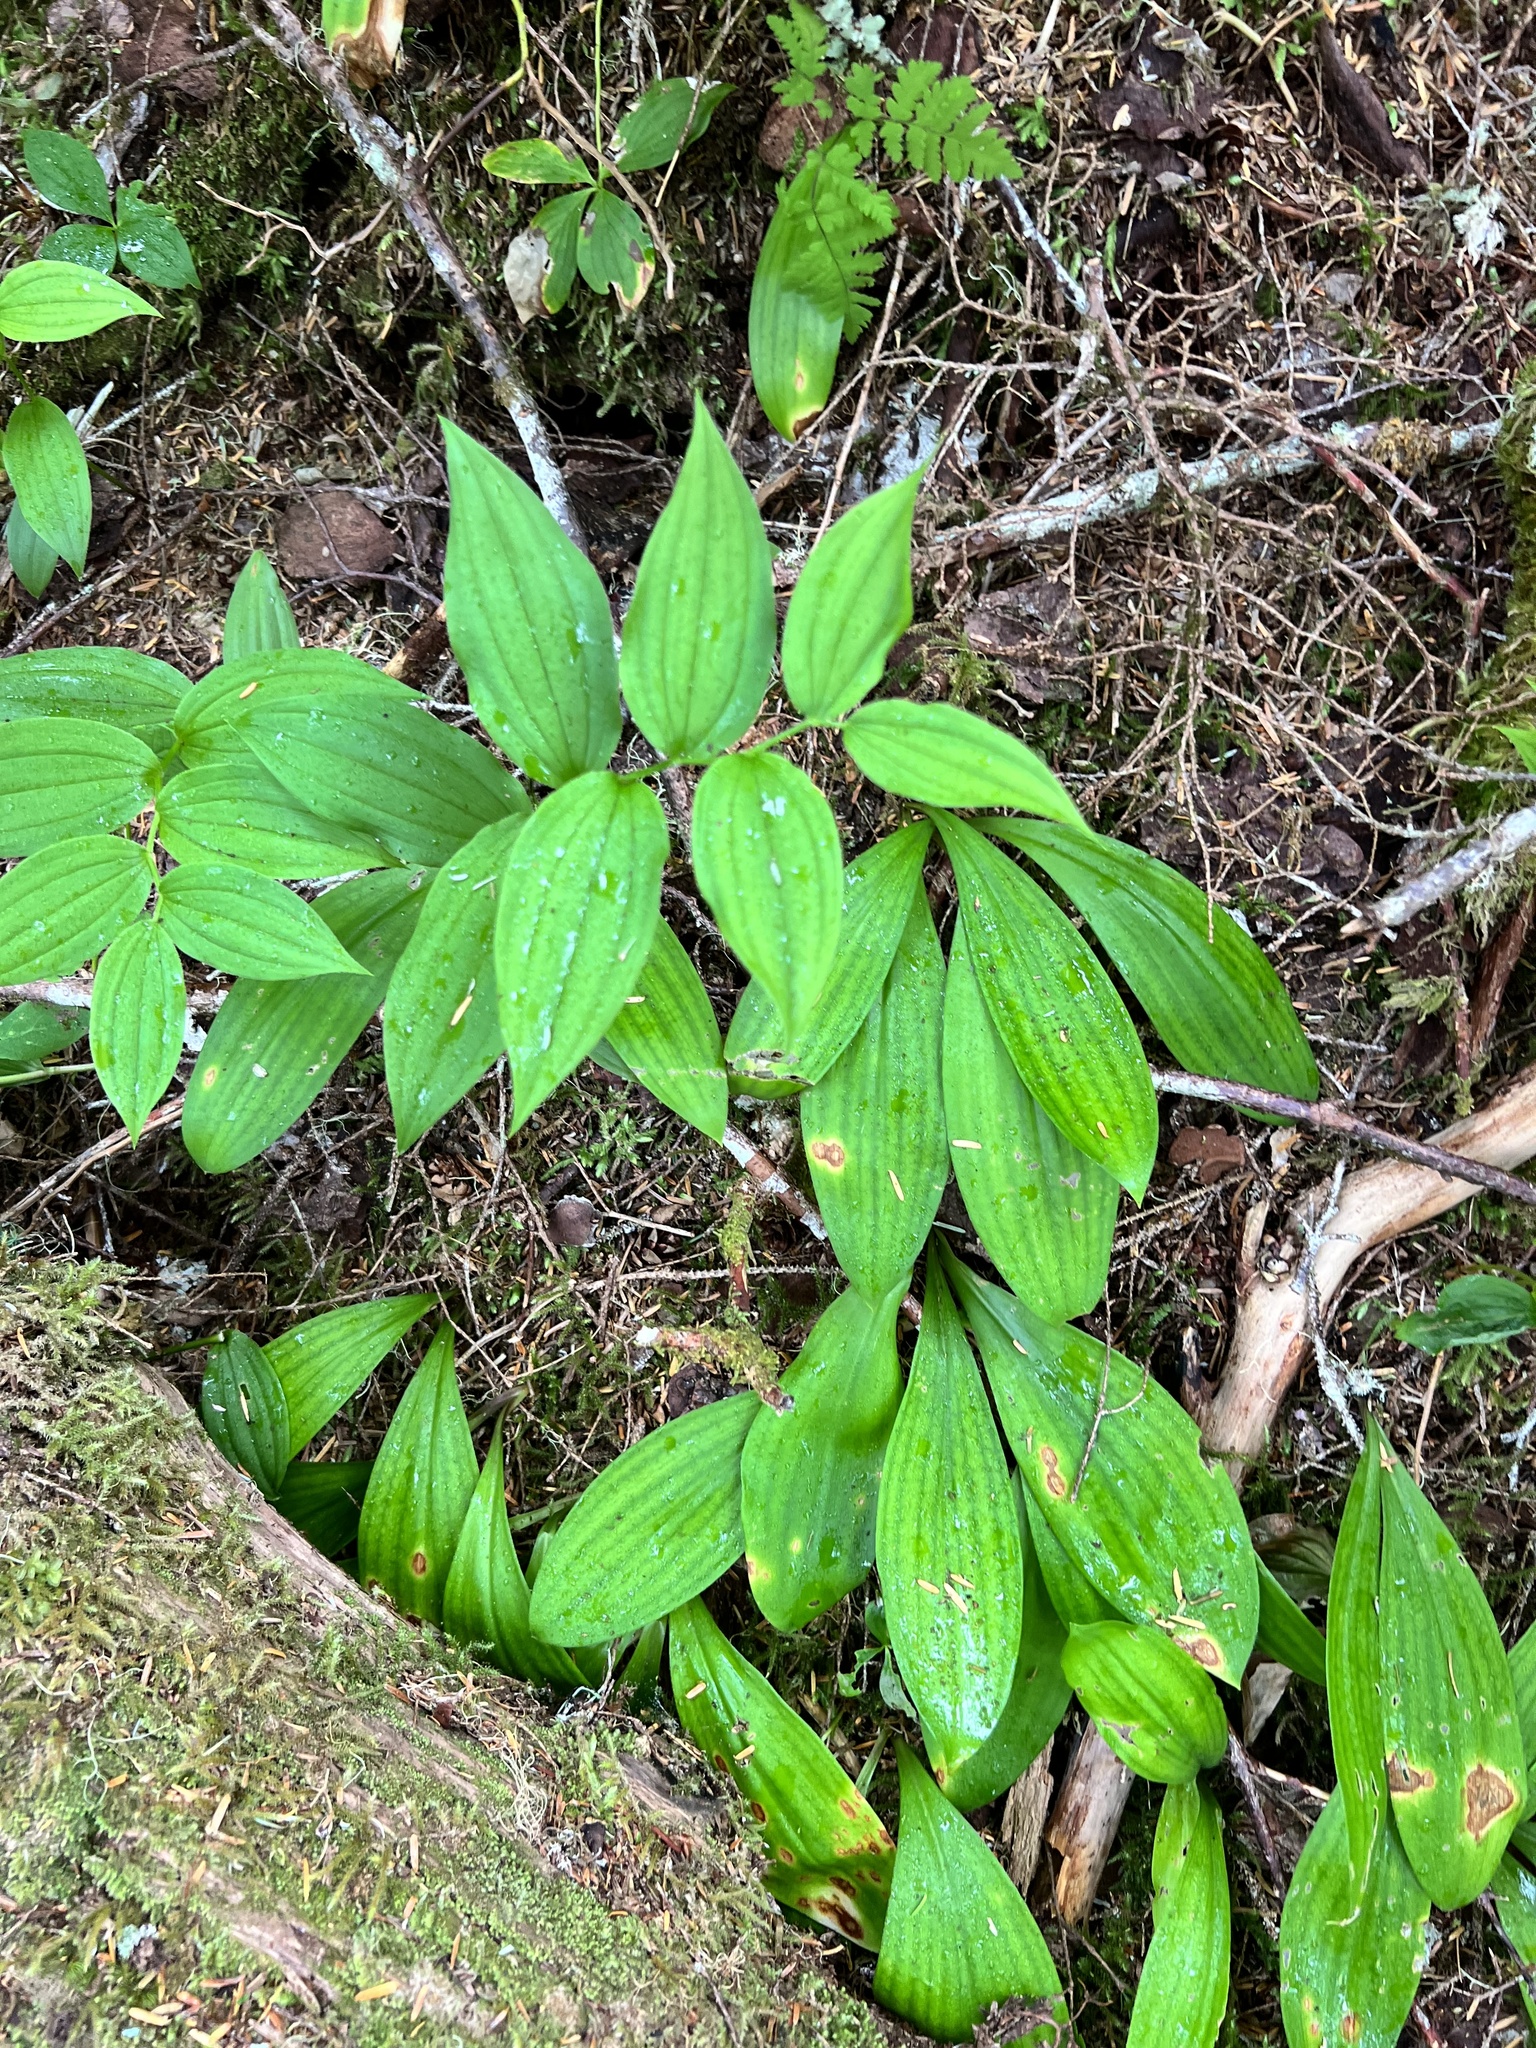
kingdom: Plantae
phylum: Tracheophyta
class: Liliopsida
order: Liliales
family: Liliaceae
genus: Streptopus
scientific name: Streptopus lanceolatus
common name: Rose mandarin
